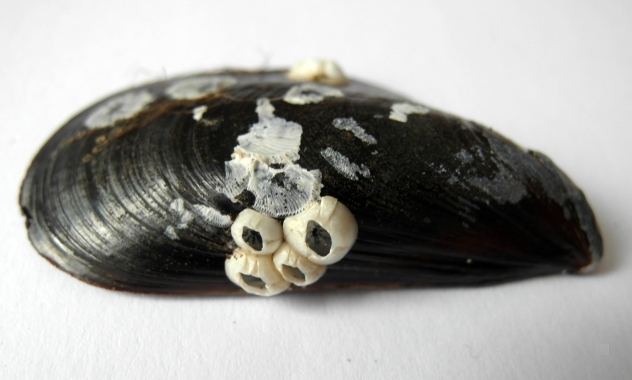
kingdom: Animalia
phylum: Arthropoda
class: Maxillopoda
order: Sessilia
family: Balanidae
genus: Amphibalanus
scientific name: Amphibalanus improvisus
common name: Bay barnacle
